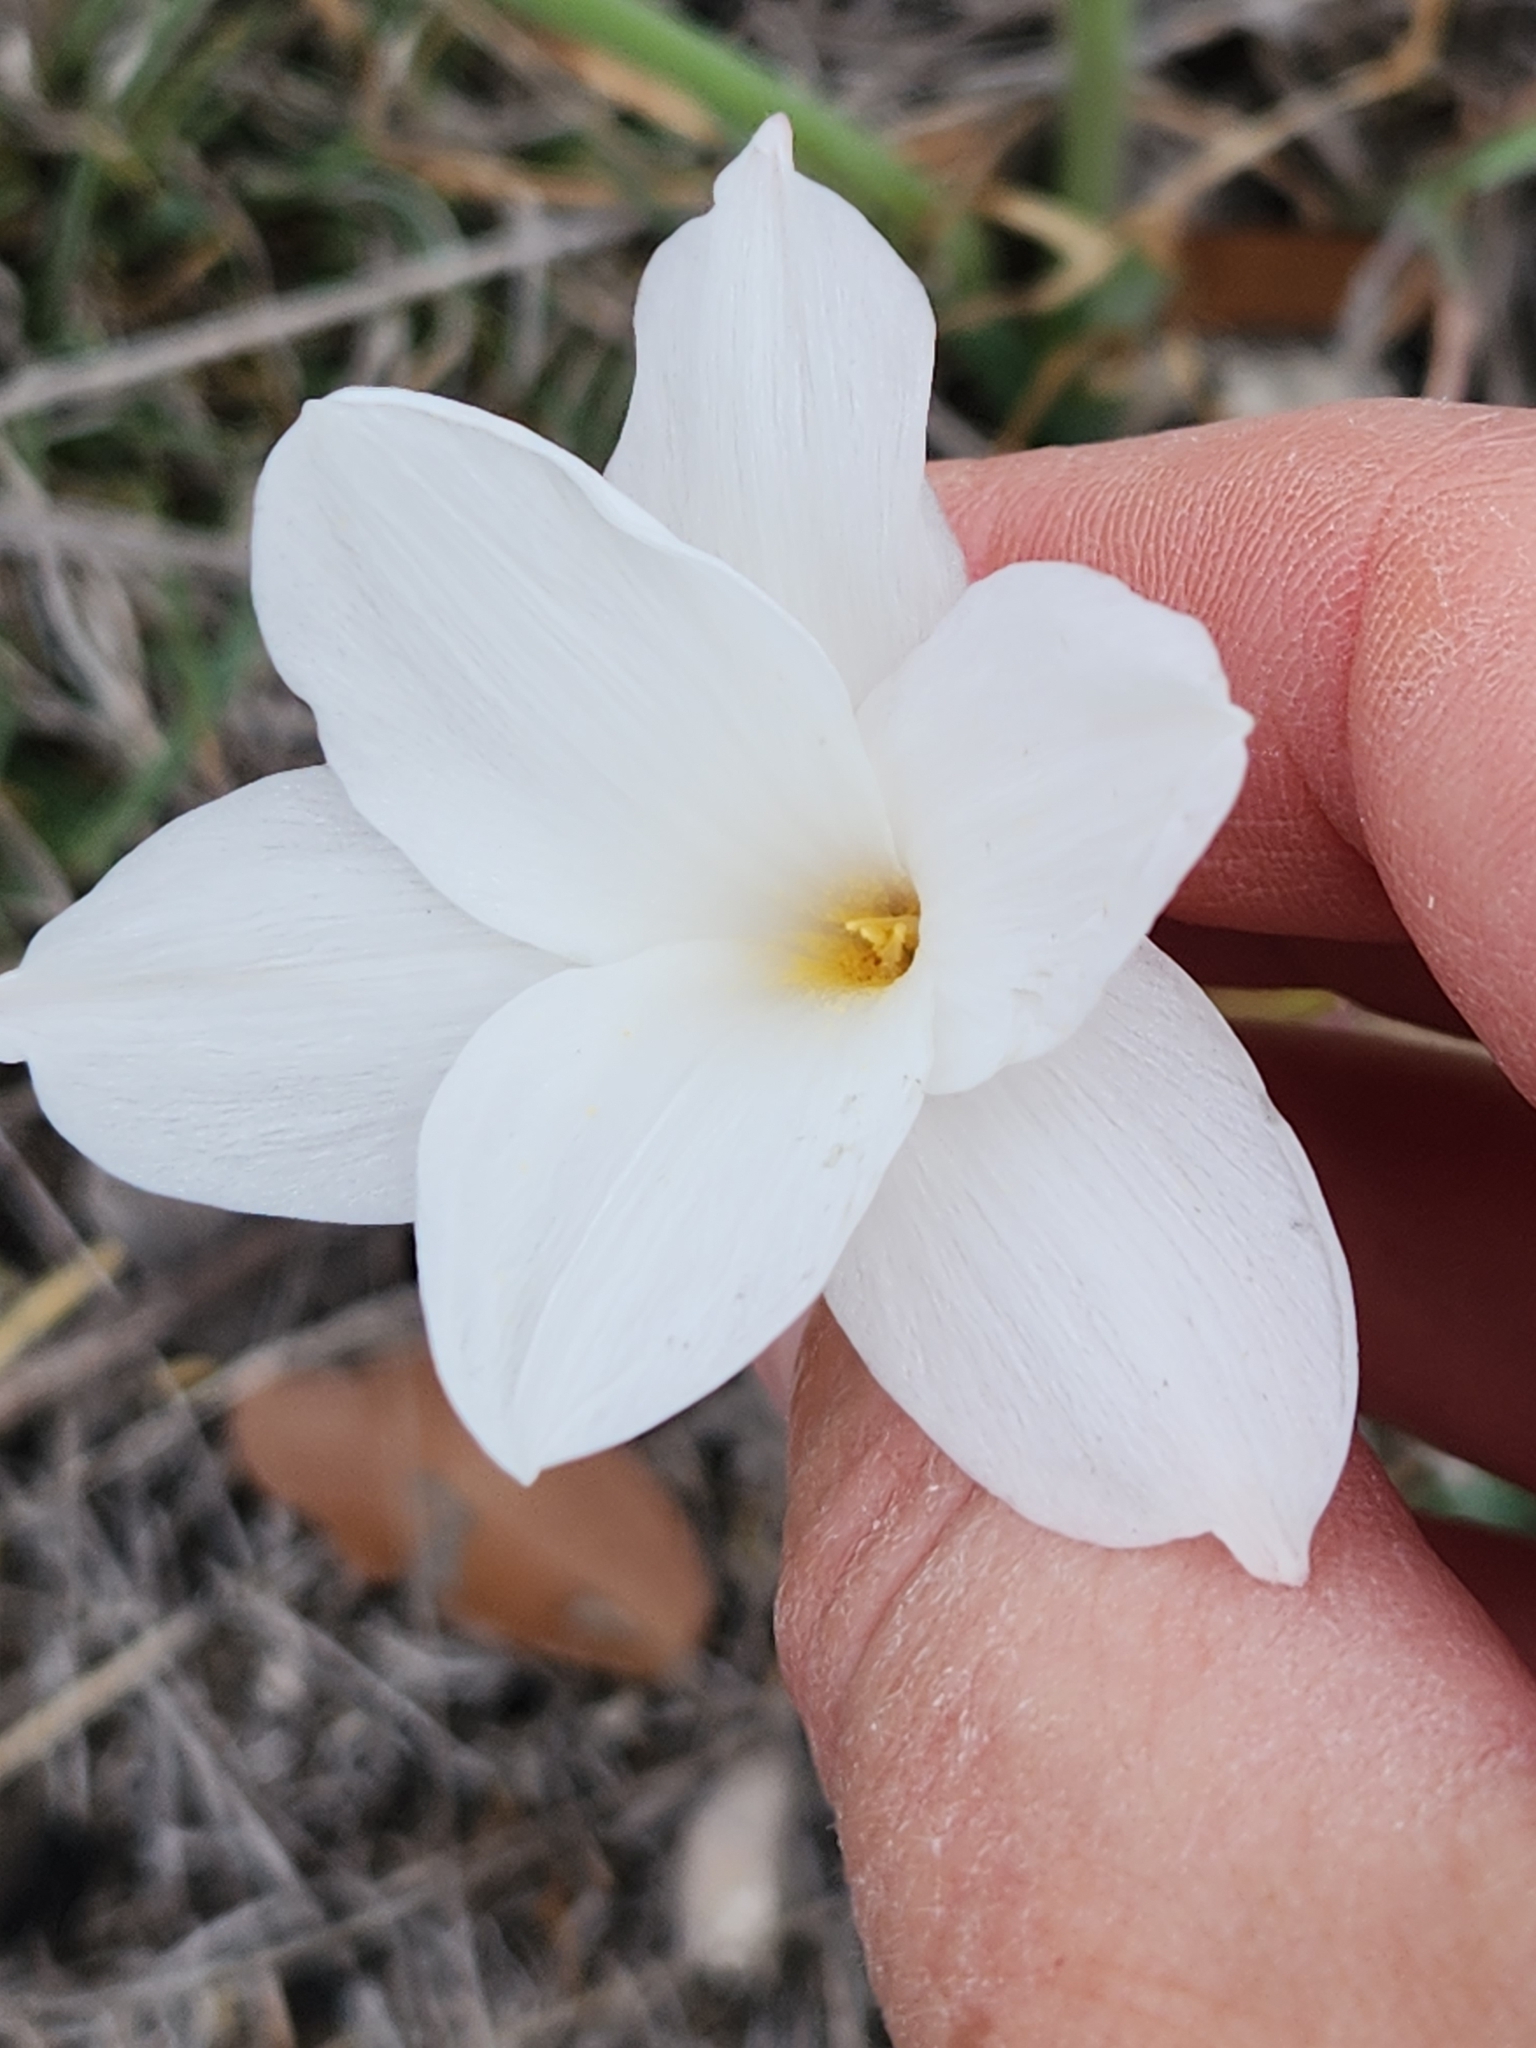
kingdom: Plantae
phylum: Tracheophyta
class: Liliopsida
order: Asparagales
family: Amaryllidaceae
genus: Zephyranthes
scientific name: Zephyranthes drummondii
